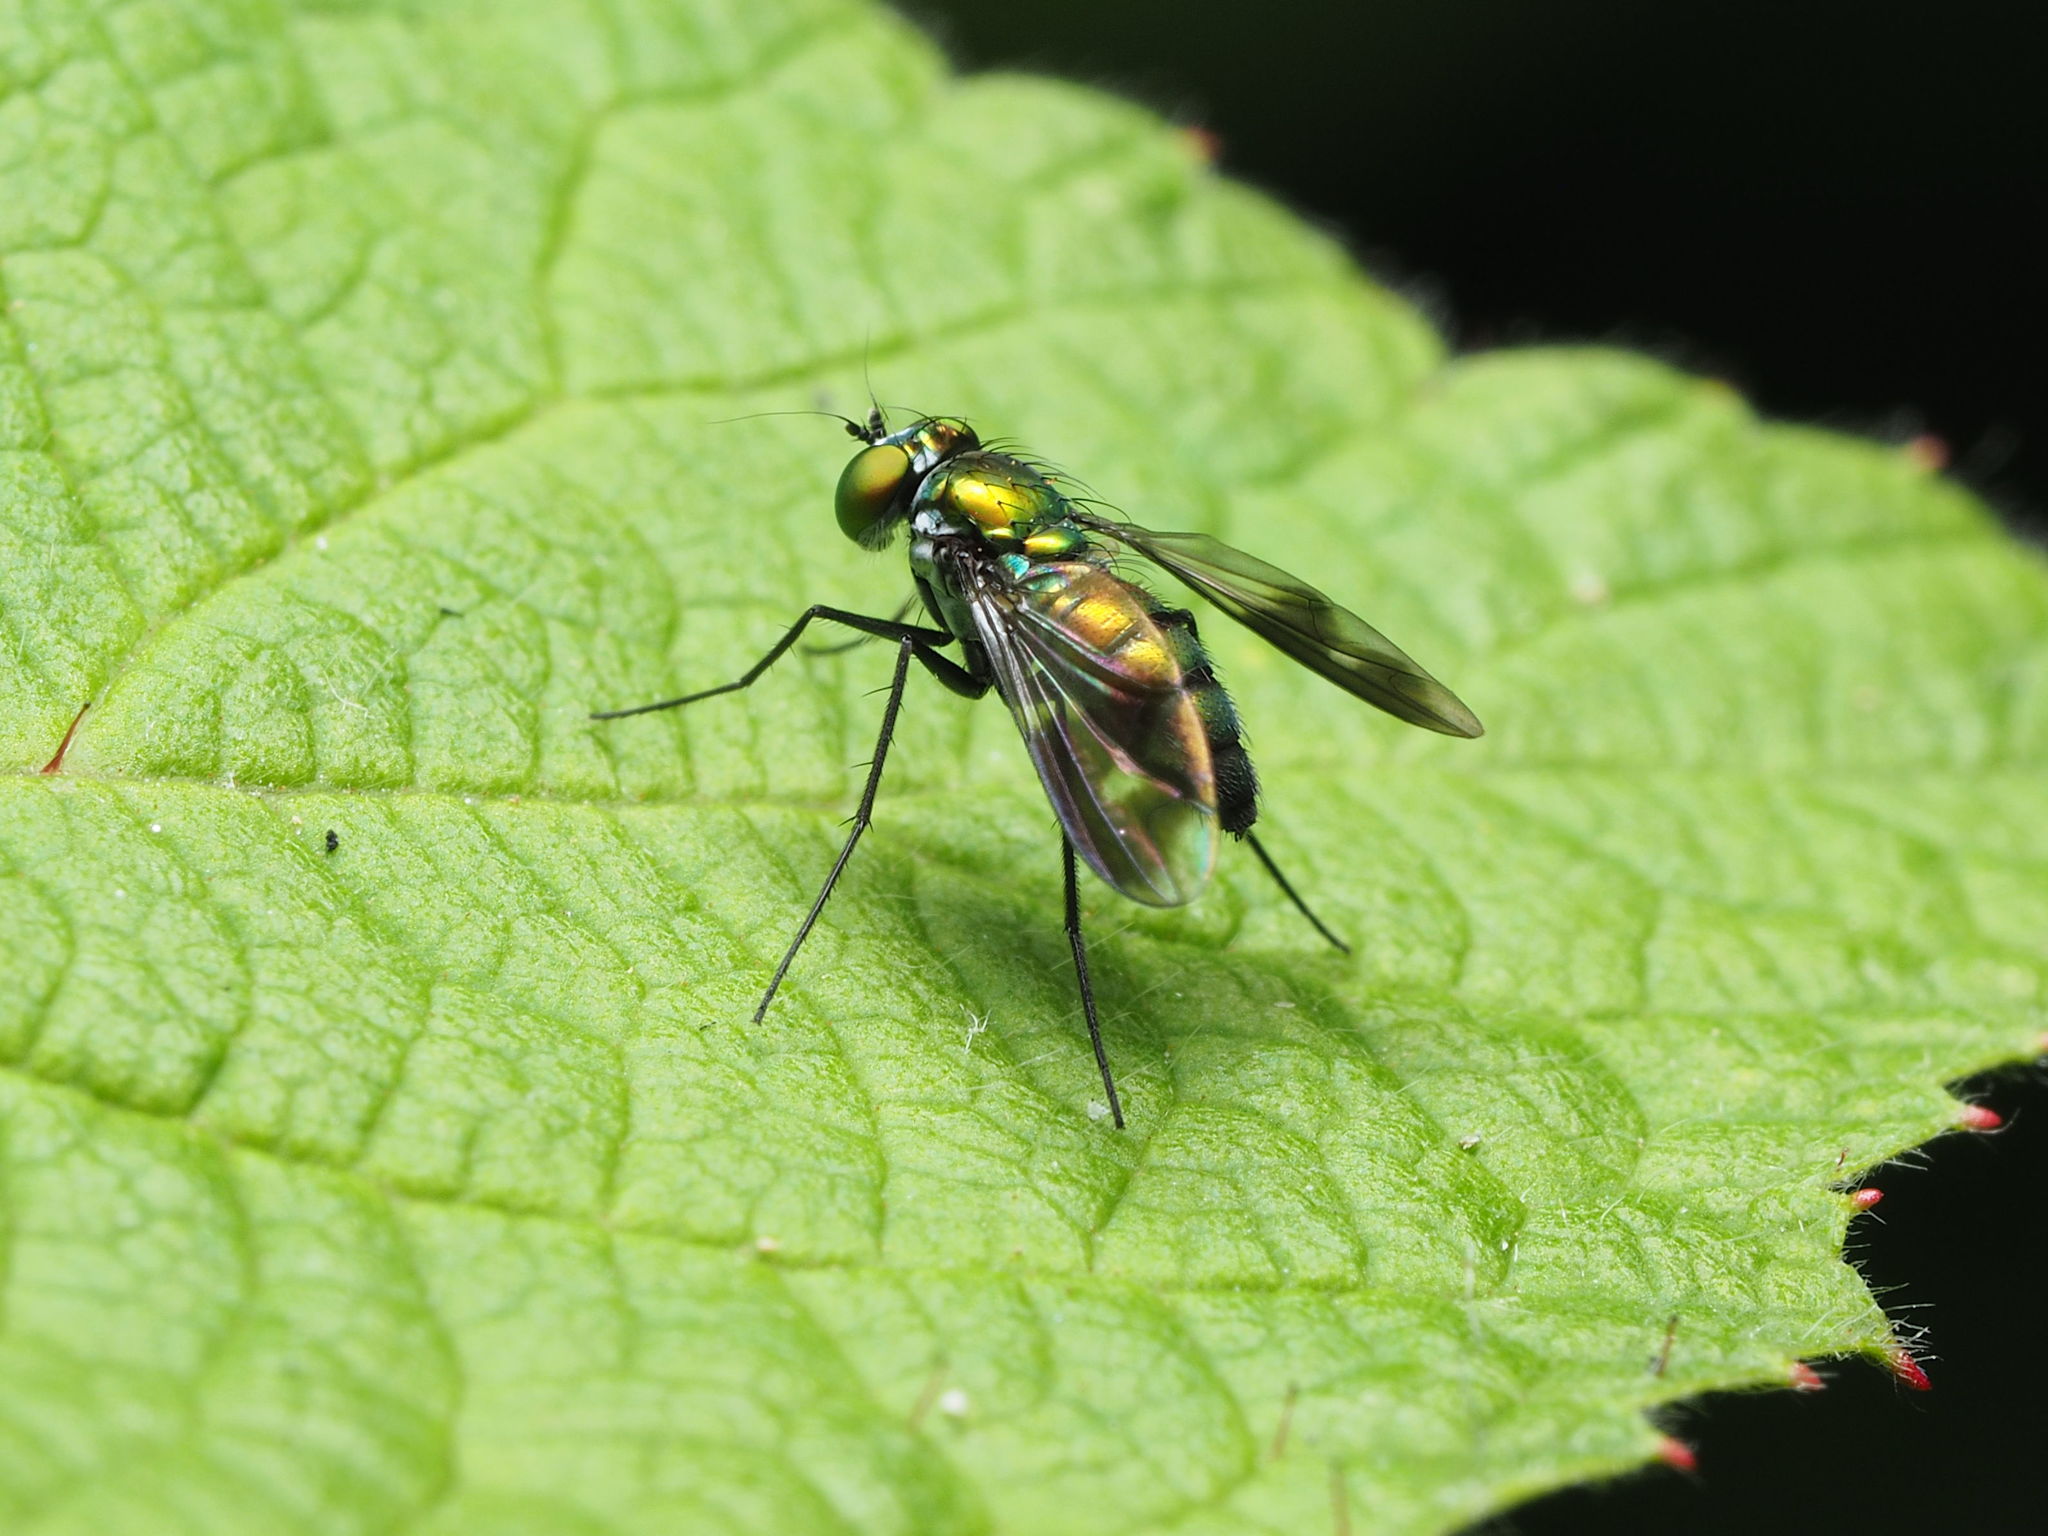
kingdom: Animalia
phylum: Arthropoda
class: Insecta
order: Diptera
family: Dolichopodidae
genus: Condylostylus
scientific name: Condylostylus patibulatus
